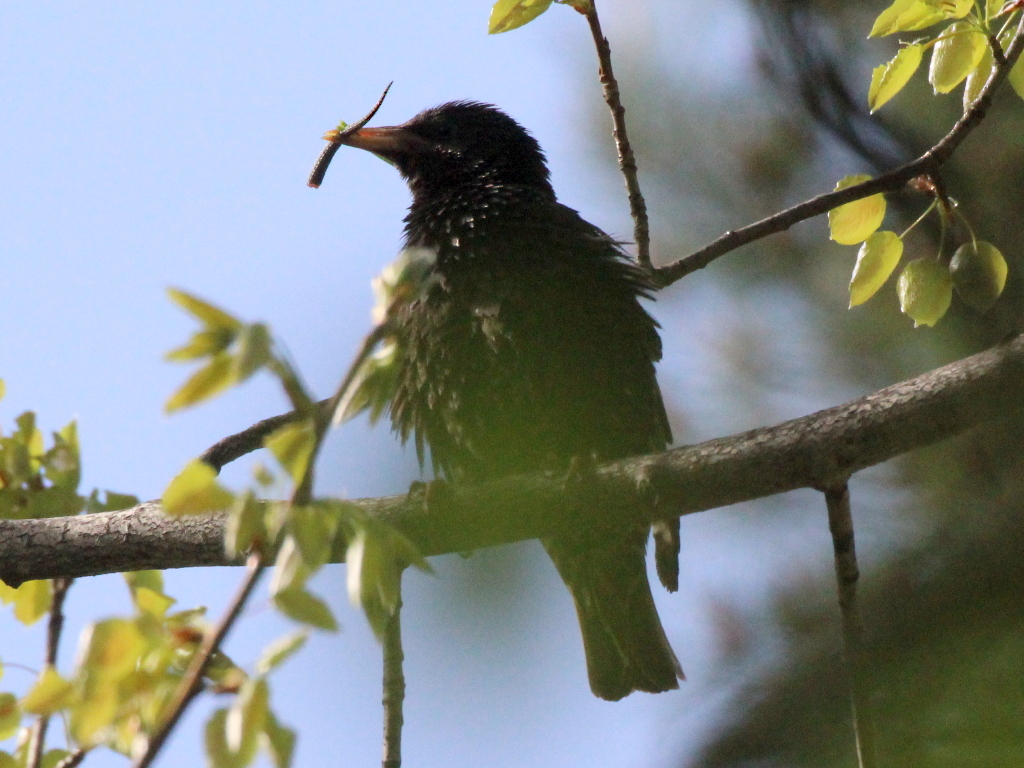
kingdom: Animalia
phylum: Chordata
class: Aves
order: Passeriformes
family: Sturnidae
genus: Sturnus
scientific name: Sturnus vulgaris
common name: Common starling
